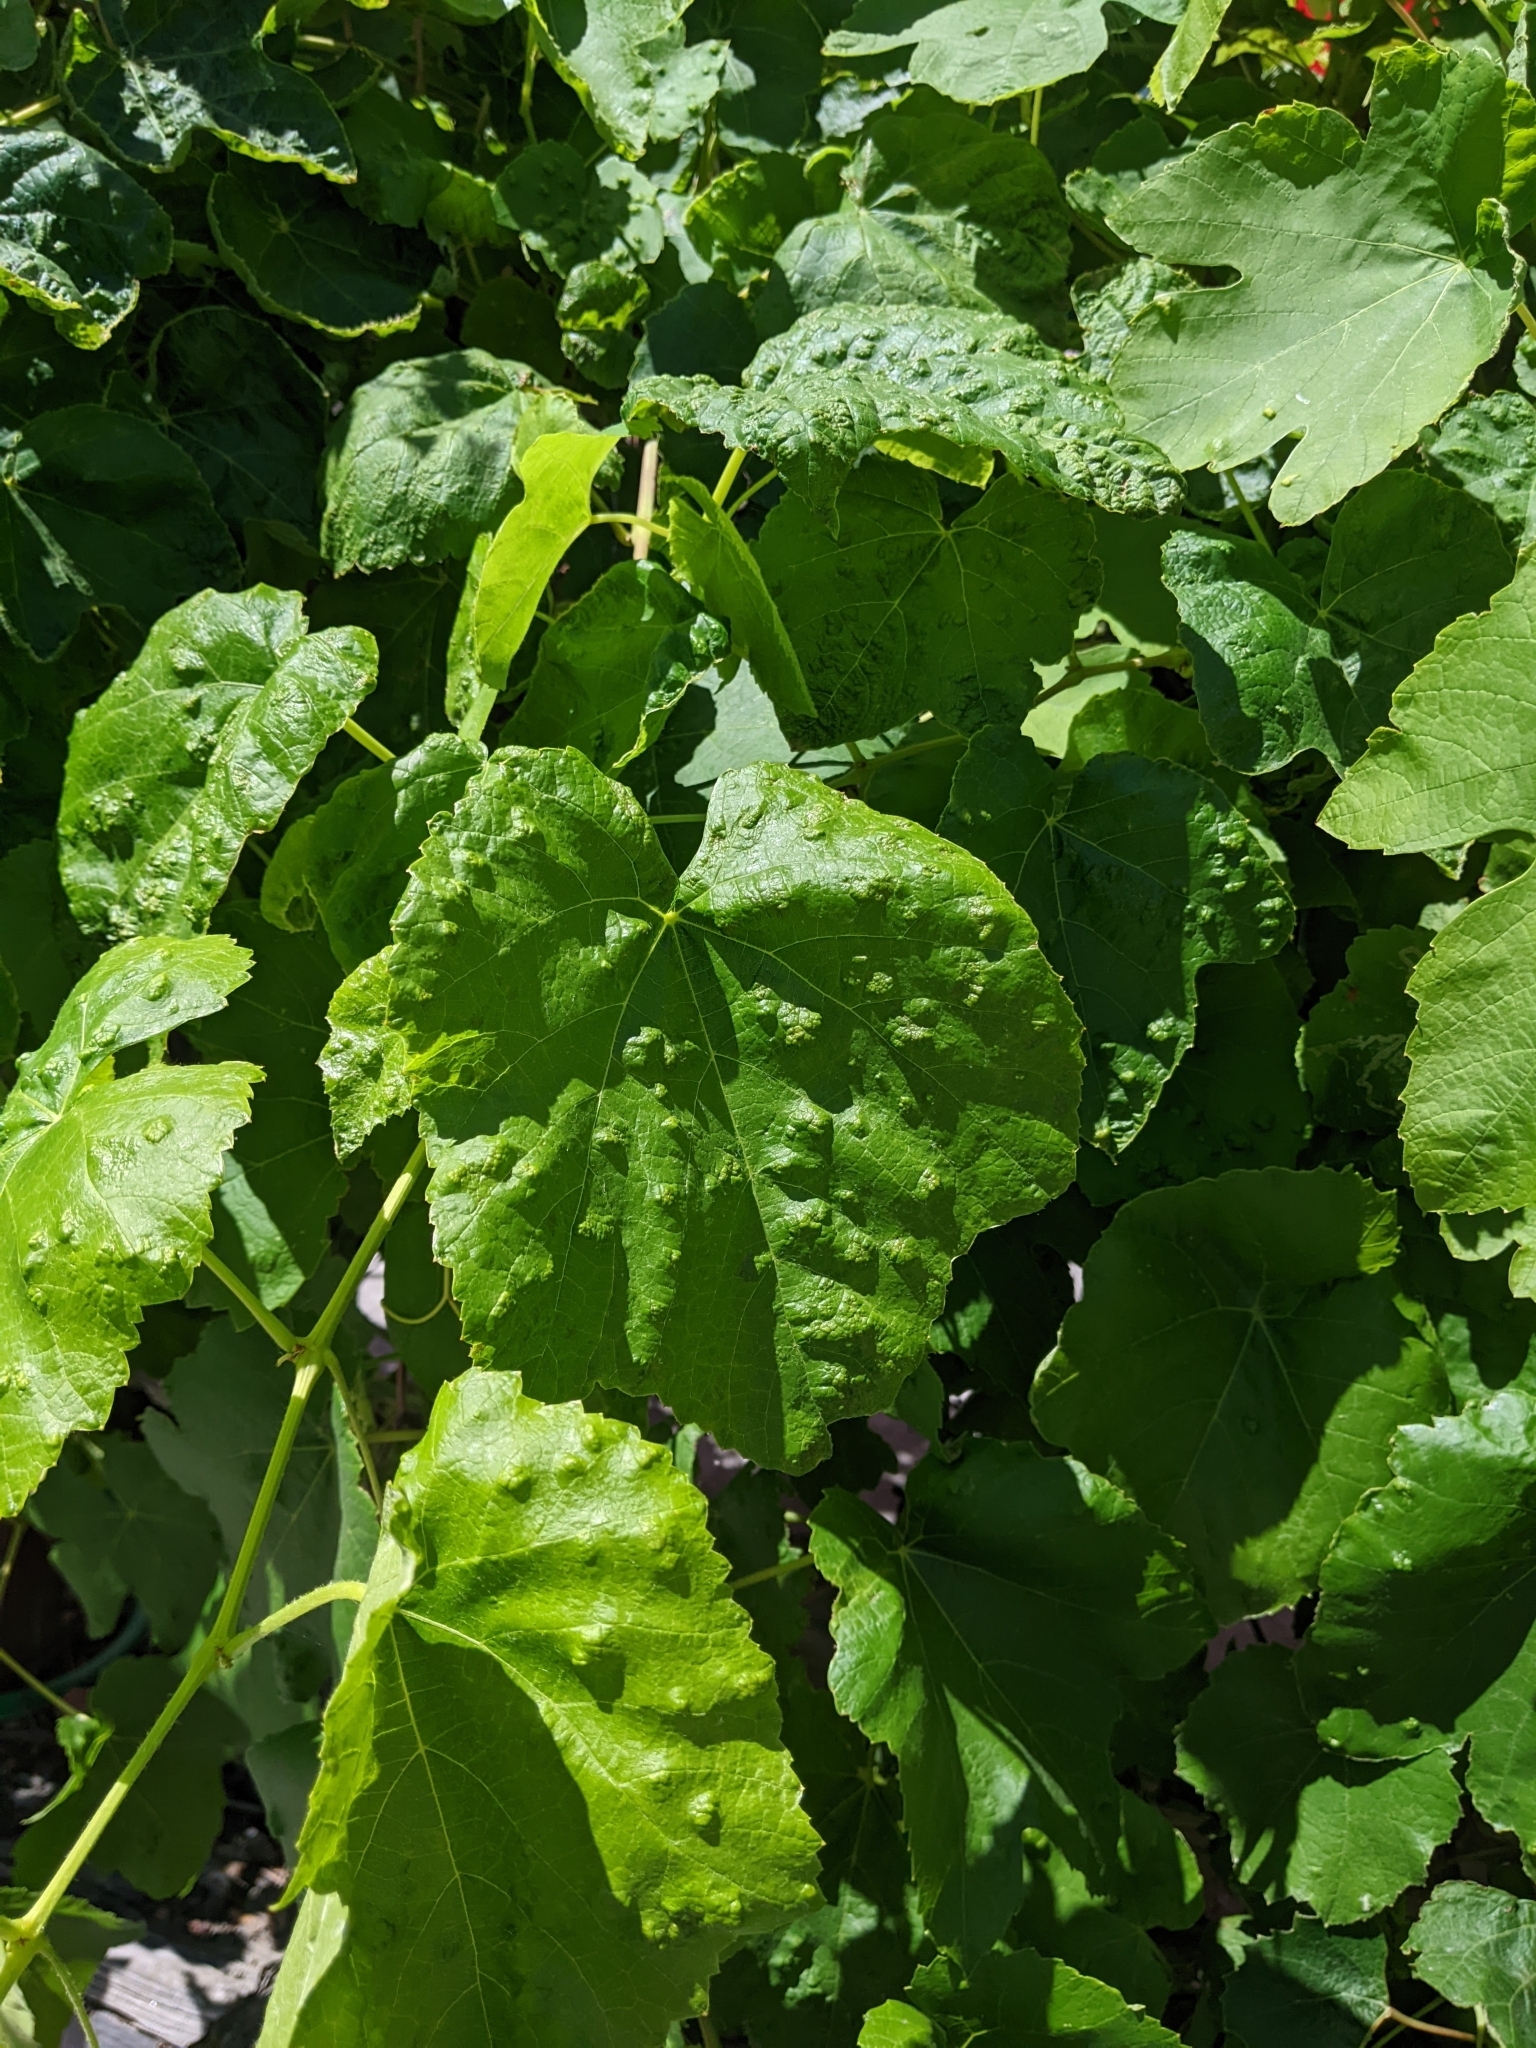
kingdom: Animalia
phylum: Arthropoda
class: Arachnida
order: Trombidiformes
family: Eriophyidae
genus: Colomerus
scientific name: Colomerus vitis
